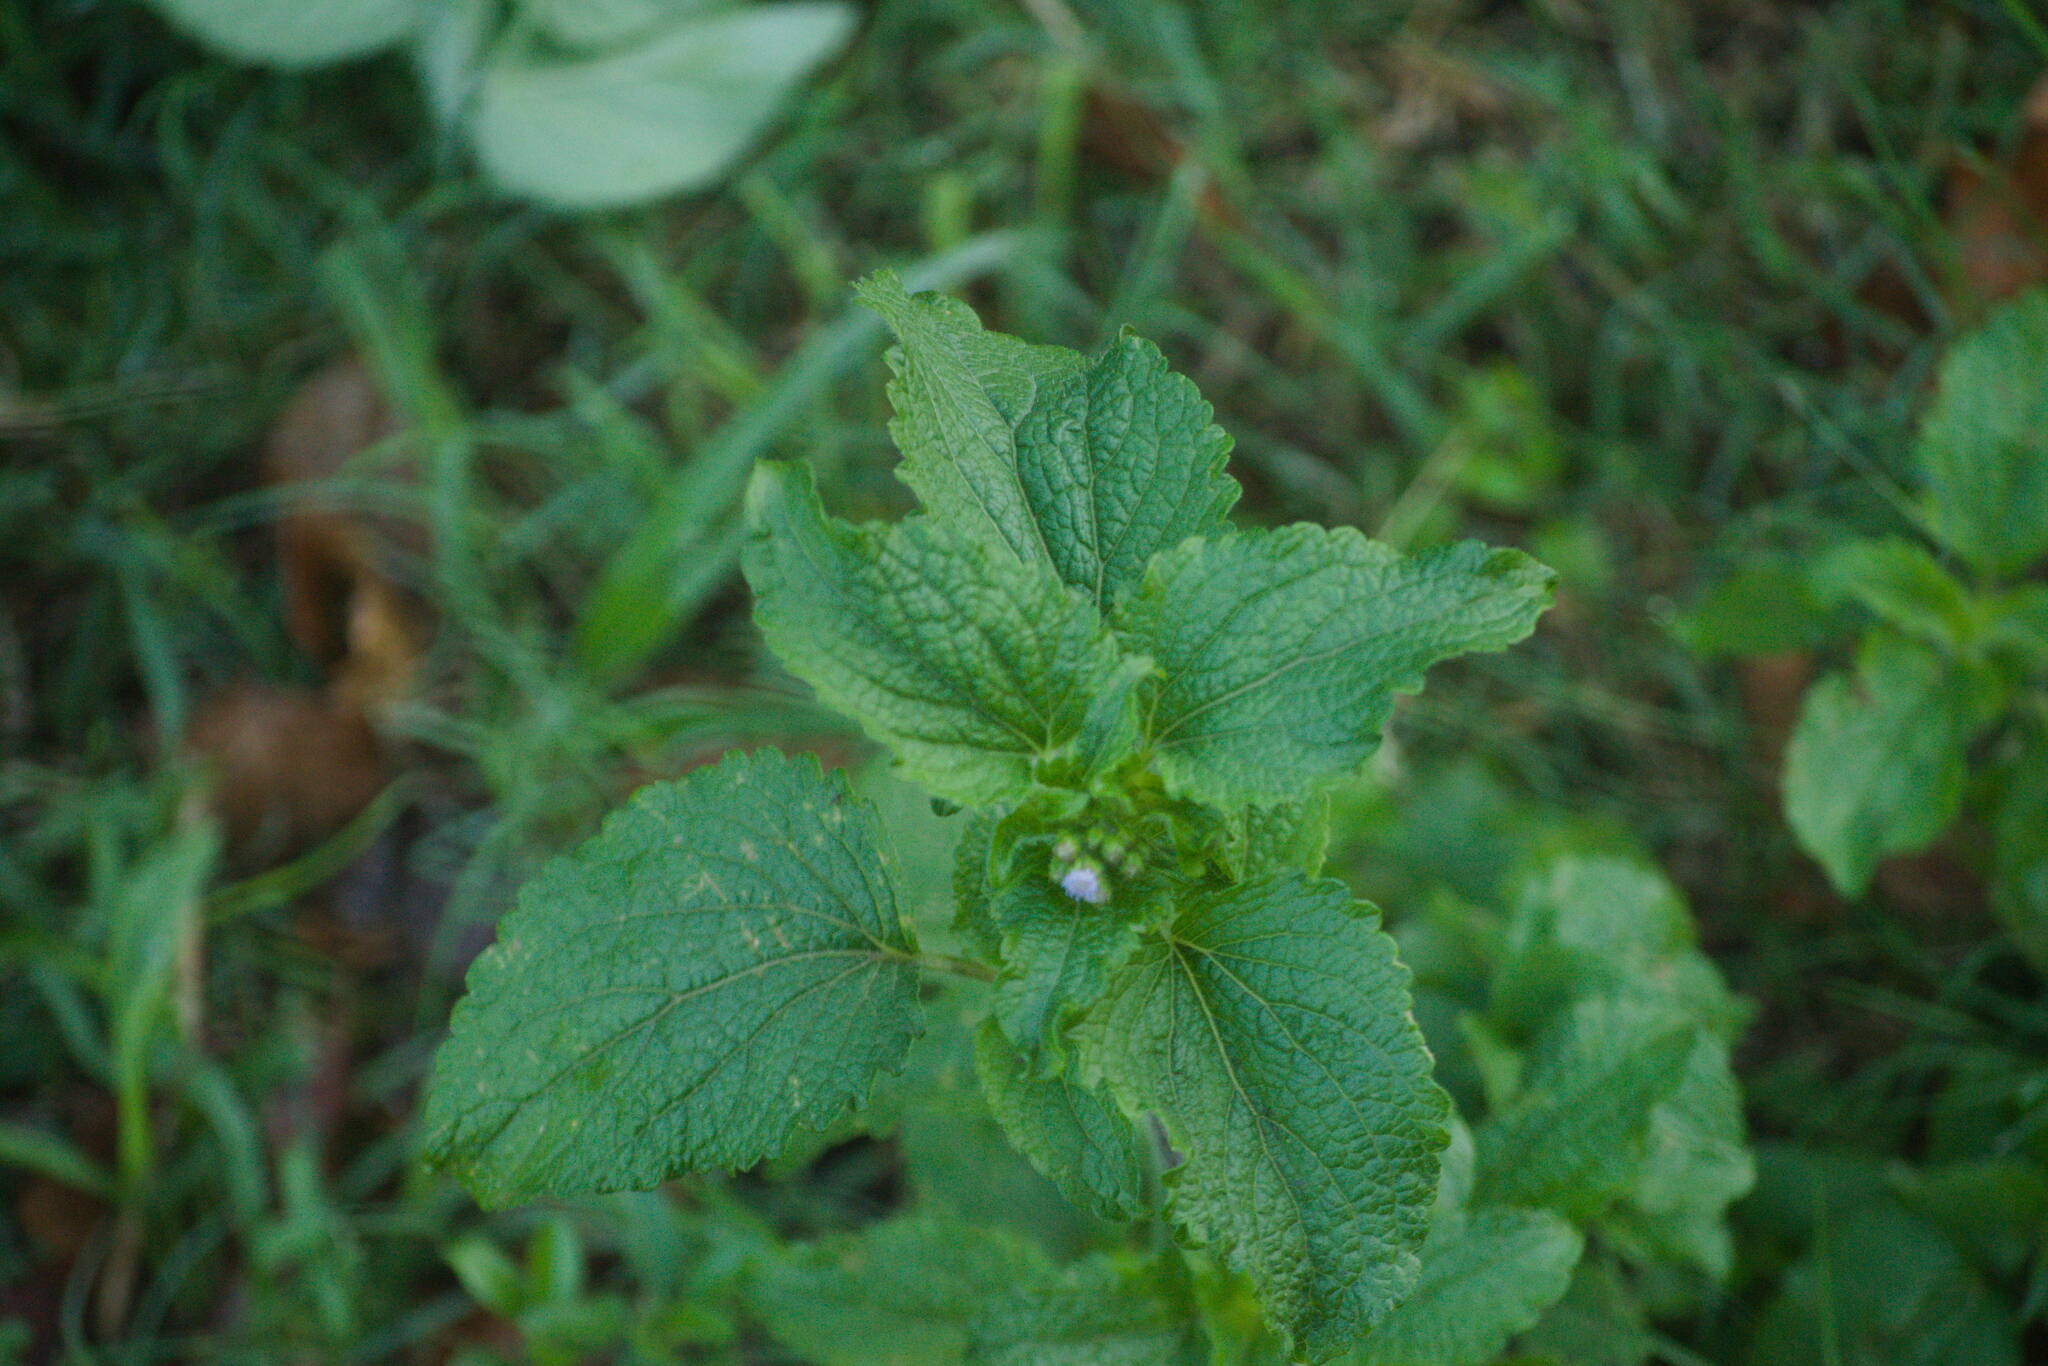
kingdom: Plantae
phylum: Tracheophyta
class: Magnoliopsida
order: Asterales
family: Asteraceae
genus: Ageratum
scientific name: Ageratum conyzoides
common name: Tropical whiteweed
